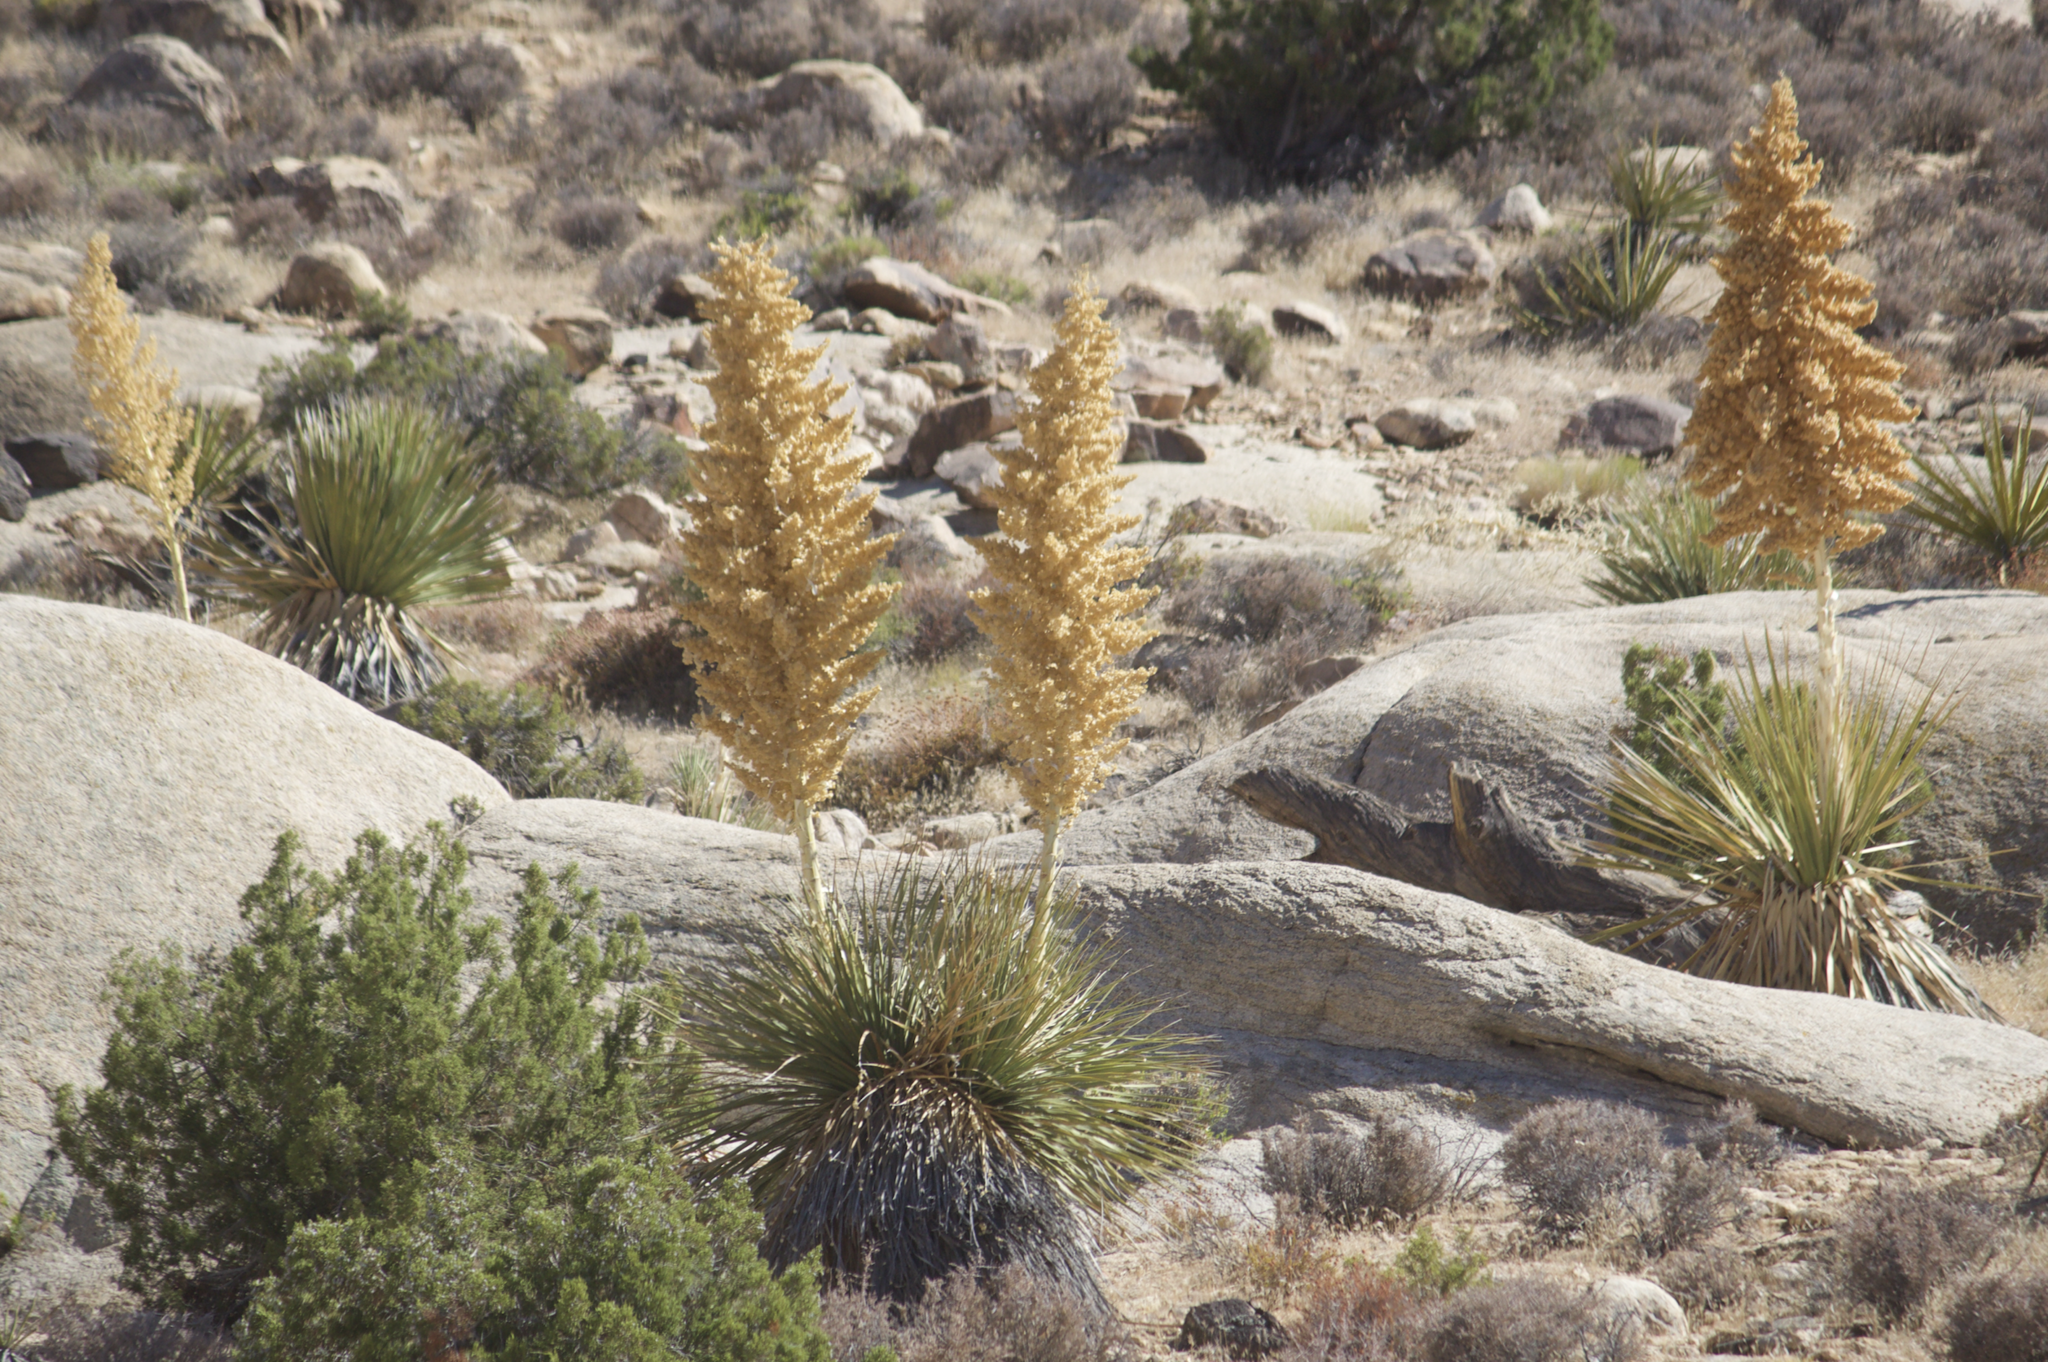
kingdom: Plantae
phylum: Tracheophyta
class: Liliopsida
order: Asparagales
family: Asparagaceae
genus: Nolina
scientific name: Nolina parryi
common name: Parry nolina
